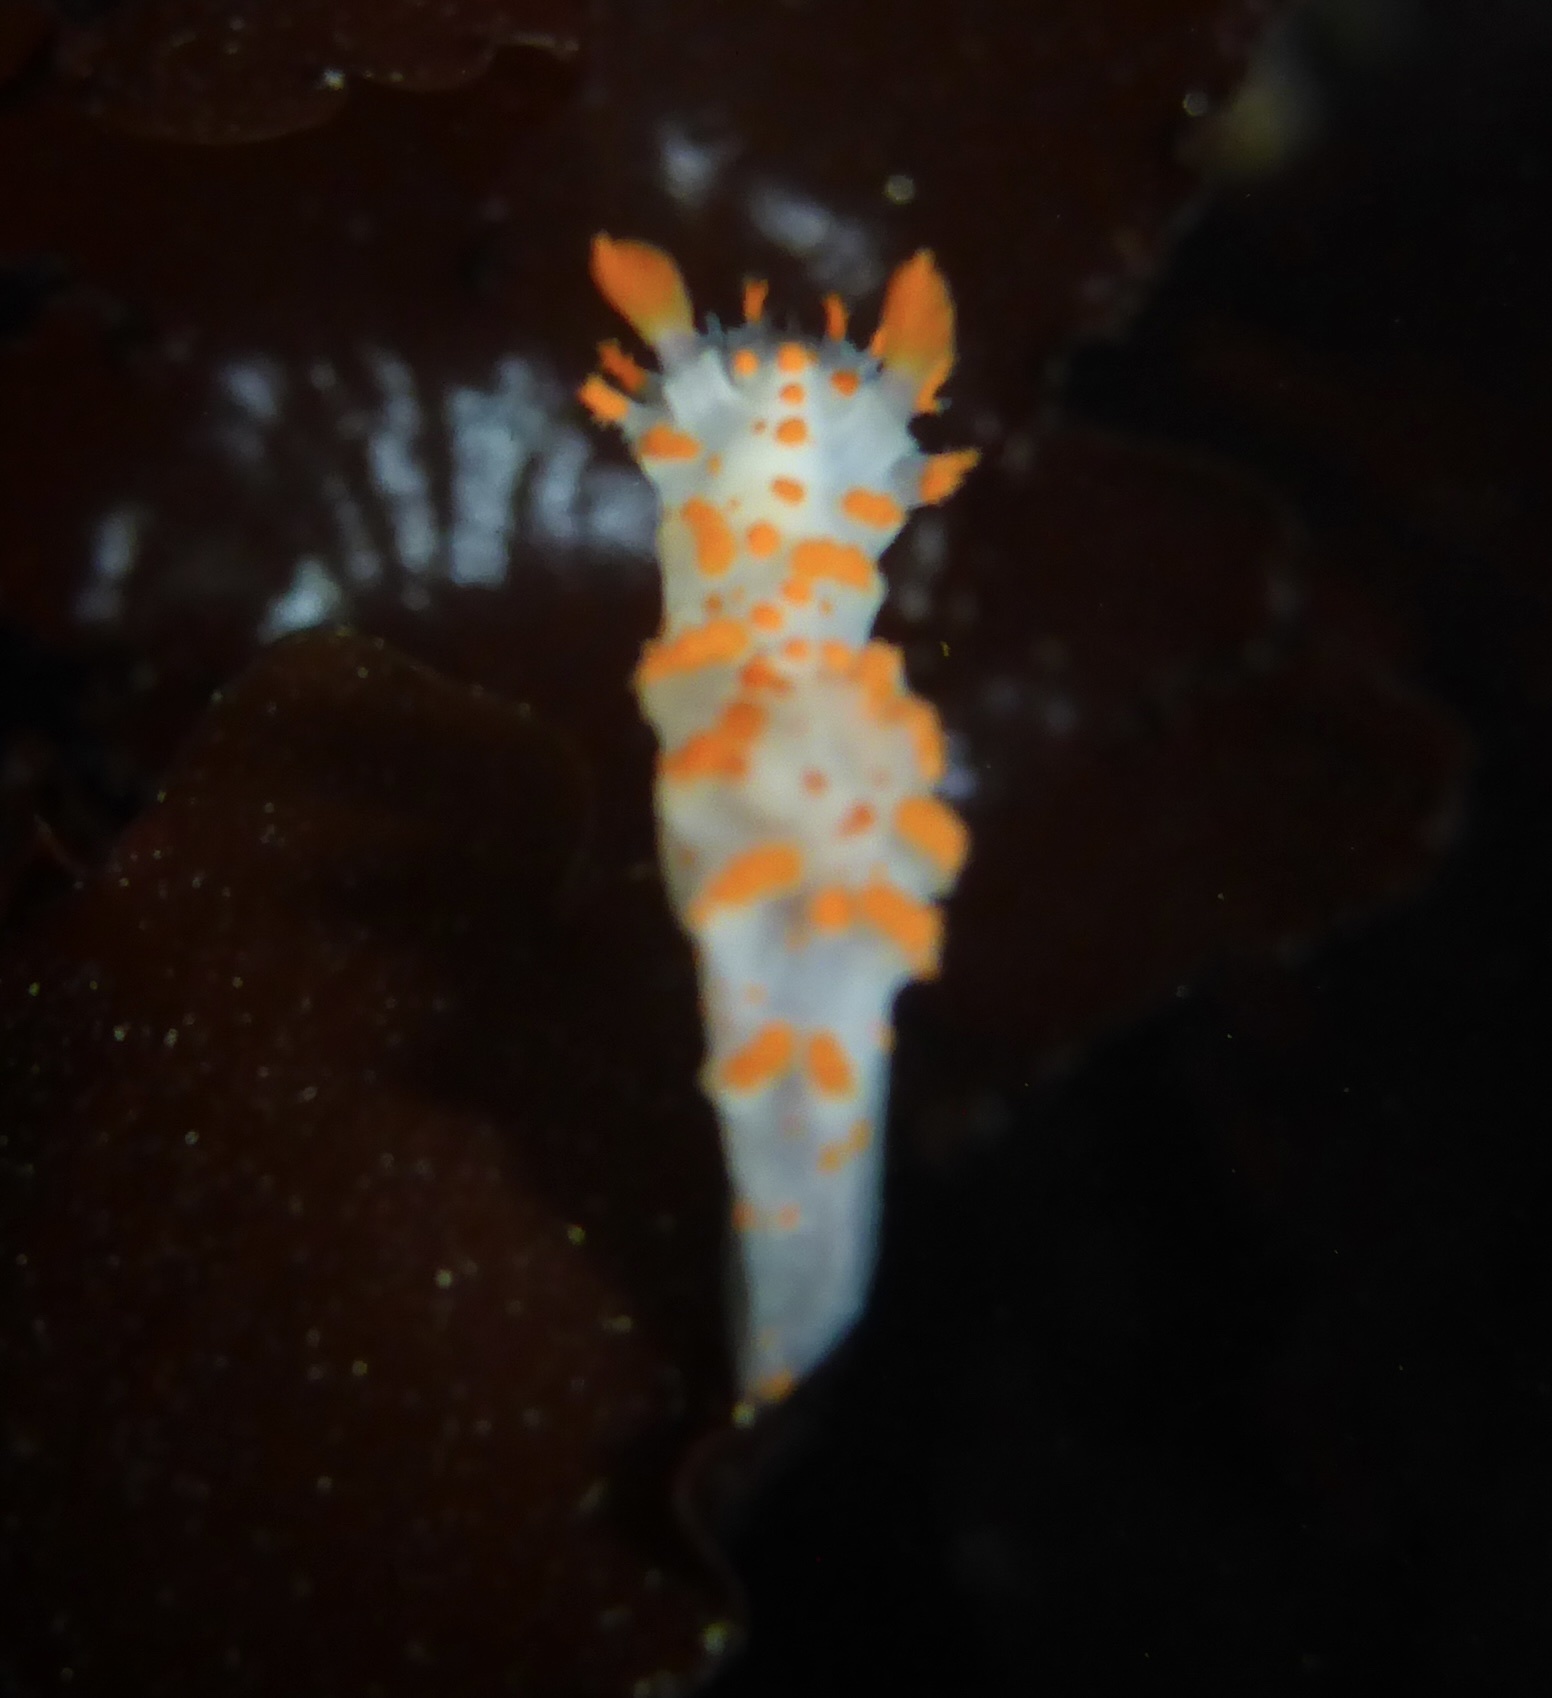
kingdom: Animalia
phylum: Mollusca
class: Gastropoda
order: Nudibranchia
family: Polyceridae
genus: Triopha
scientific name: Triopha catalinae
